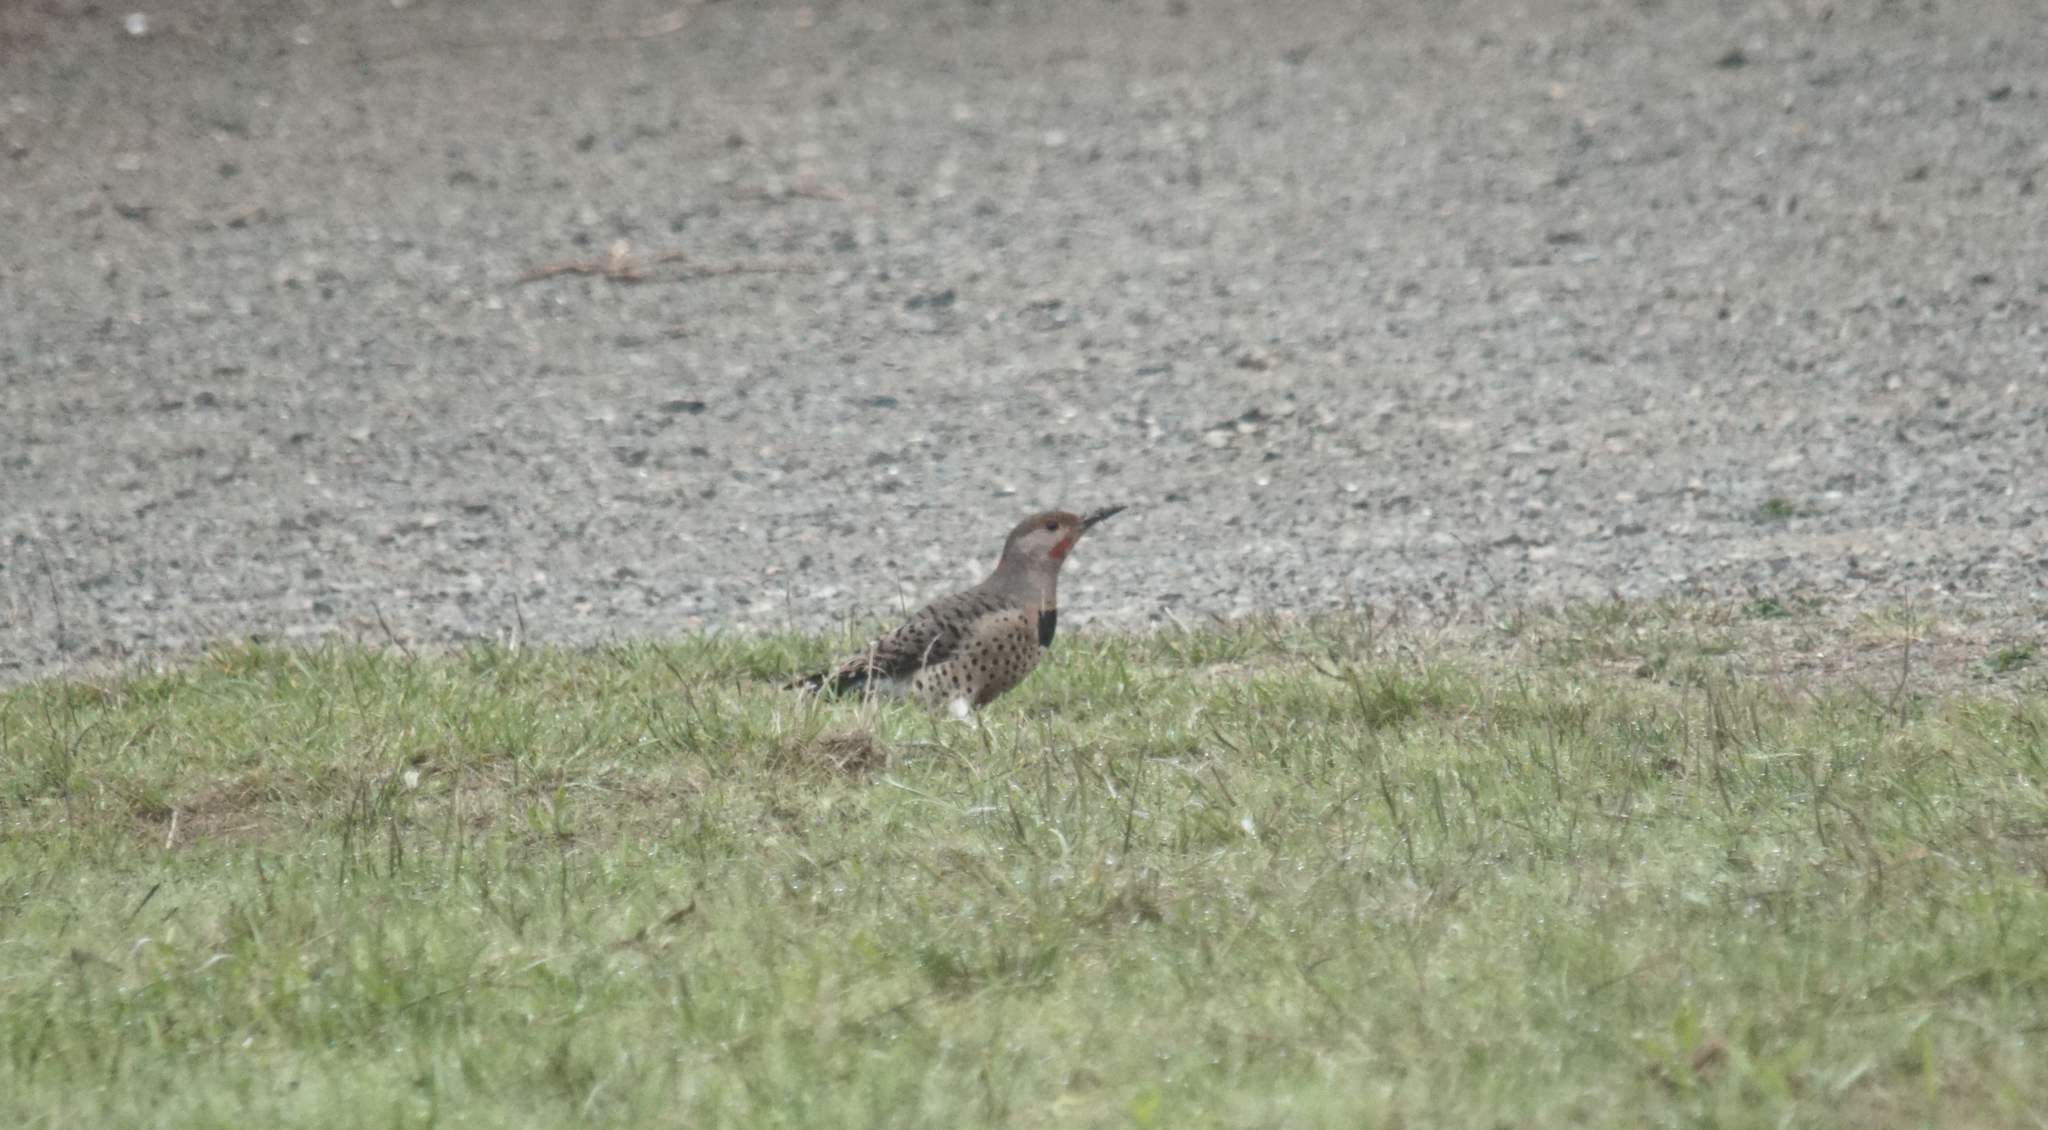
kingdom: Animalia
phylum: Chordata
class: Aves
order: Piciformes
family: Picidae
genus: Colaptes
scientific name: Colaptes auratus
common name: Northern flicker
